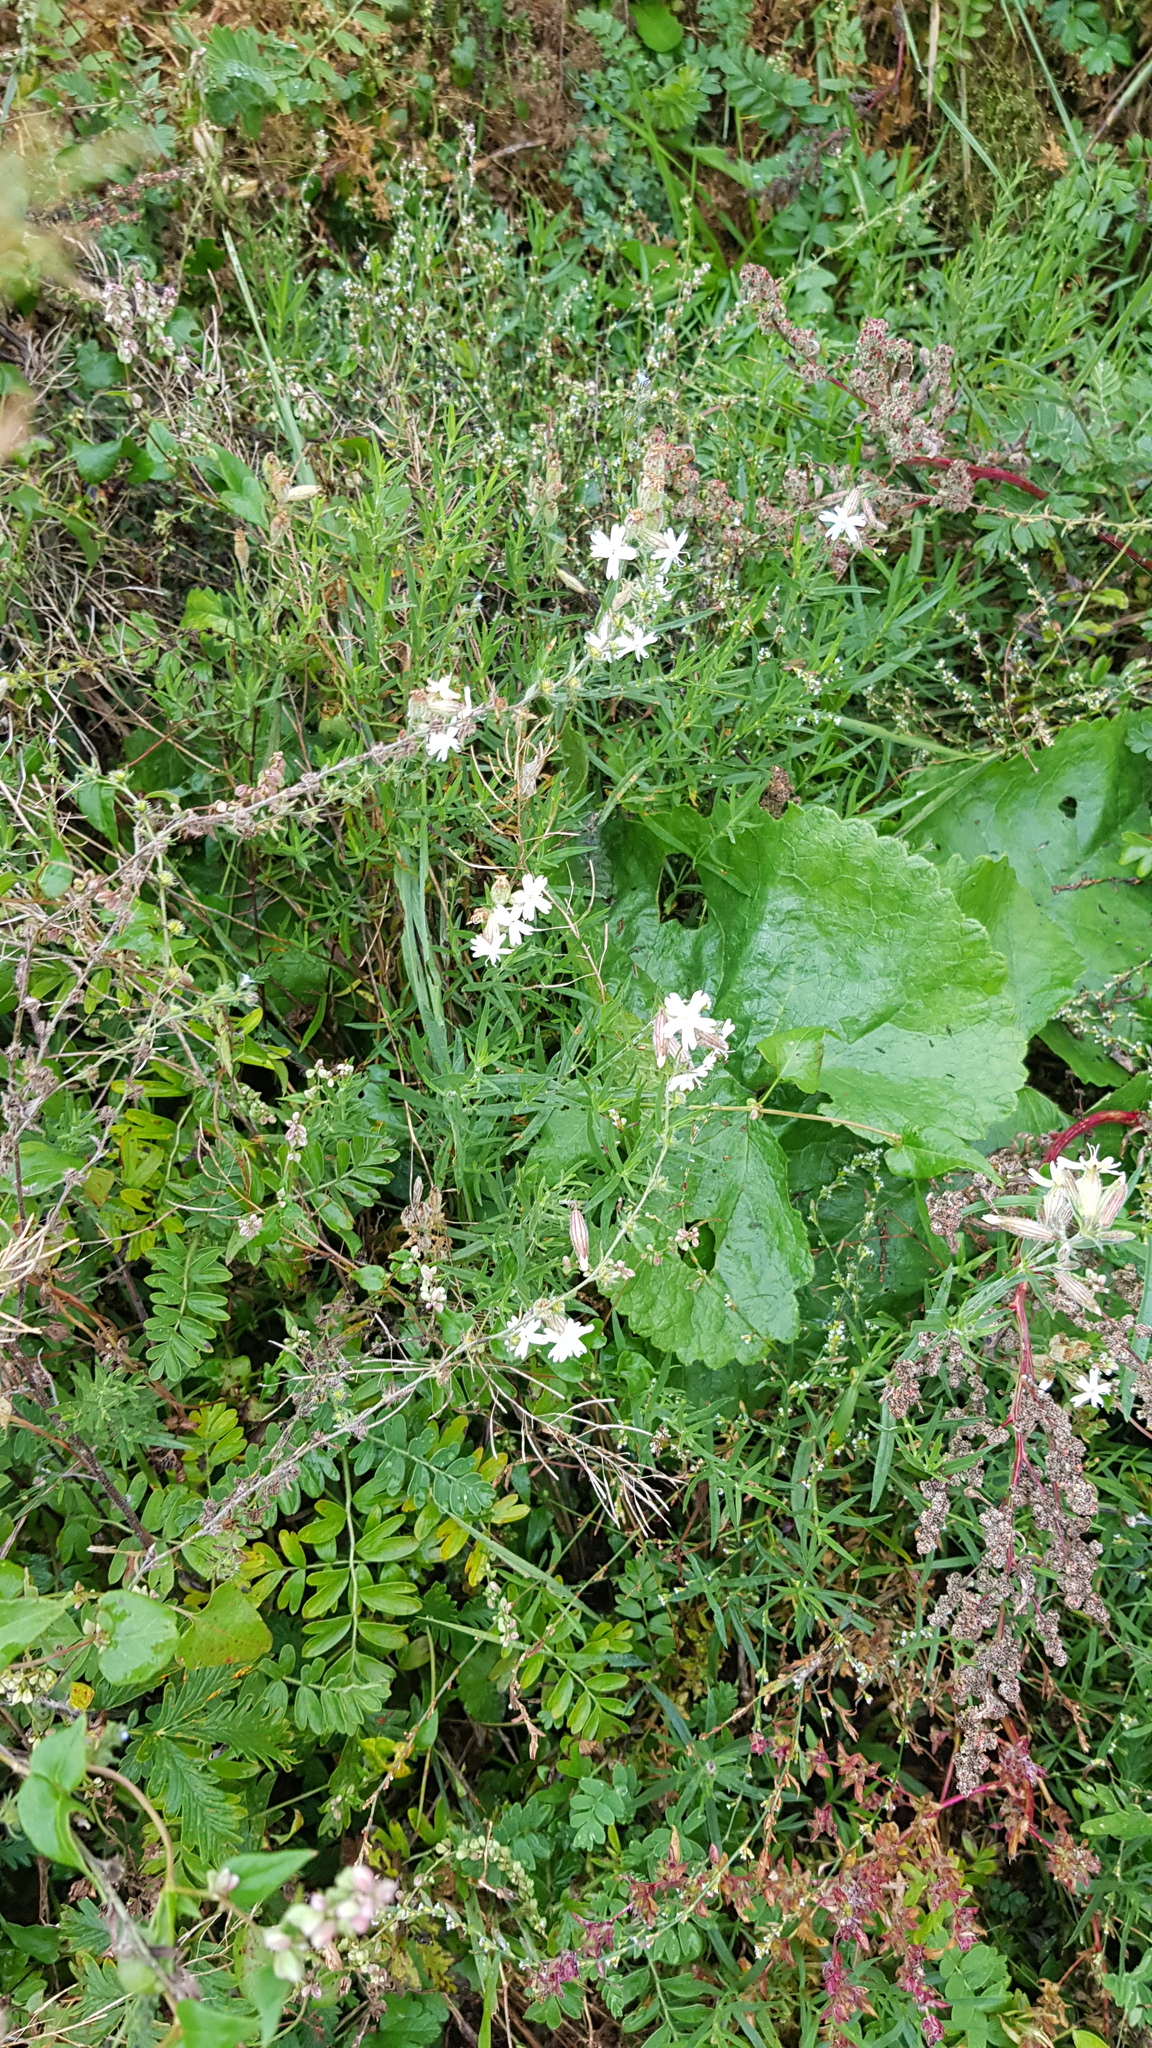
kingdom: Plantae
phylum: Tracheophyta
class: Magnoliopsida
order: Caryophyllales
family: Caryophyllaceae
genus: Silene
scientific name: Silene amoena
